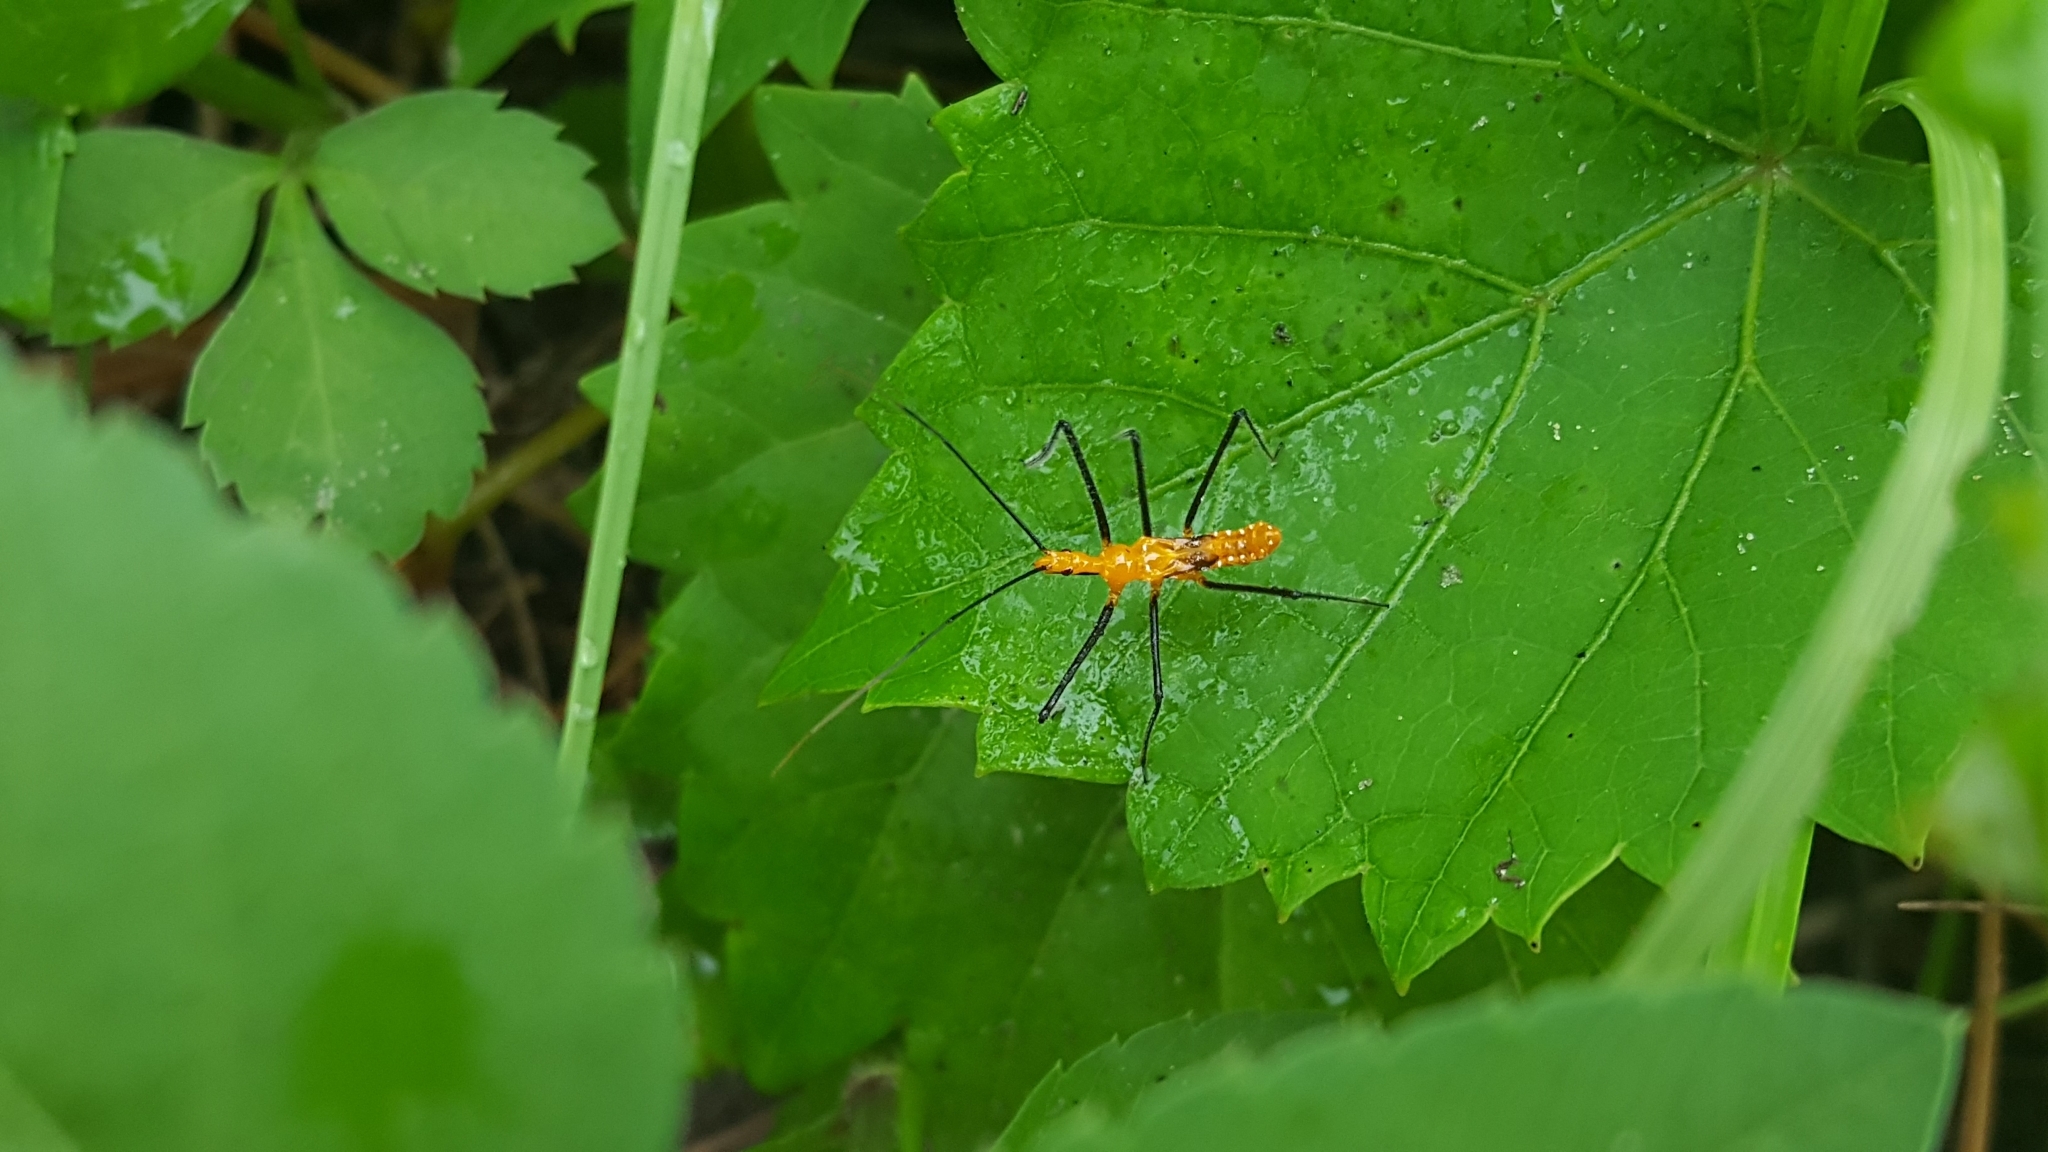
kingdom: Animalia
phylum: Arthropoda
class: Insecta
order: Hemiptera
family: Reduviidae
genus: Zelus
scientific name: Zelus longipes
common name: Milkweed assassin bug
